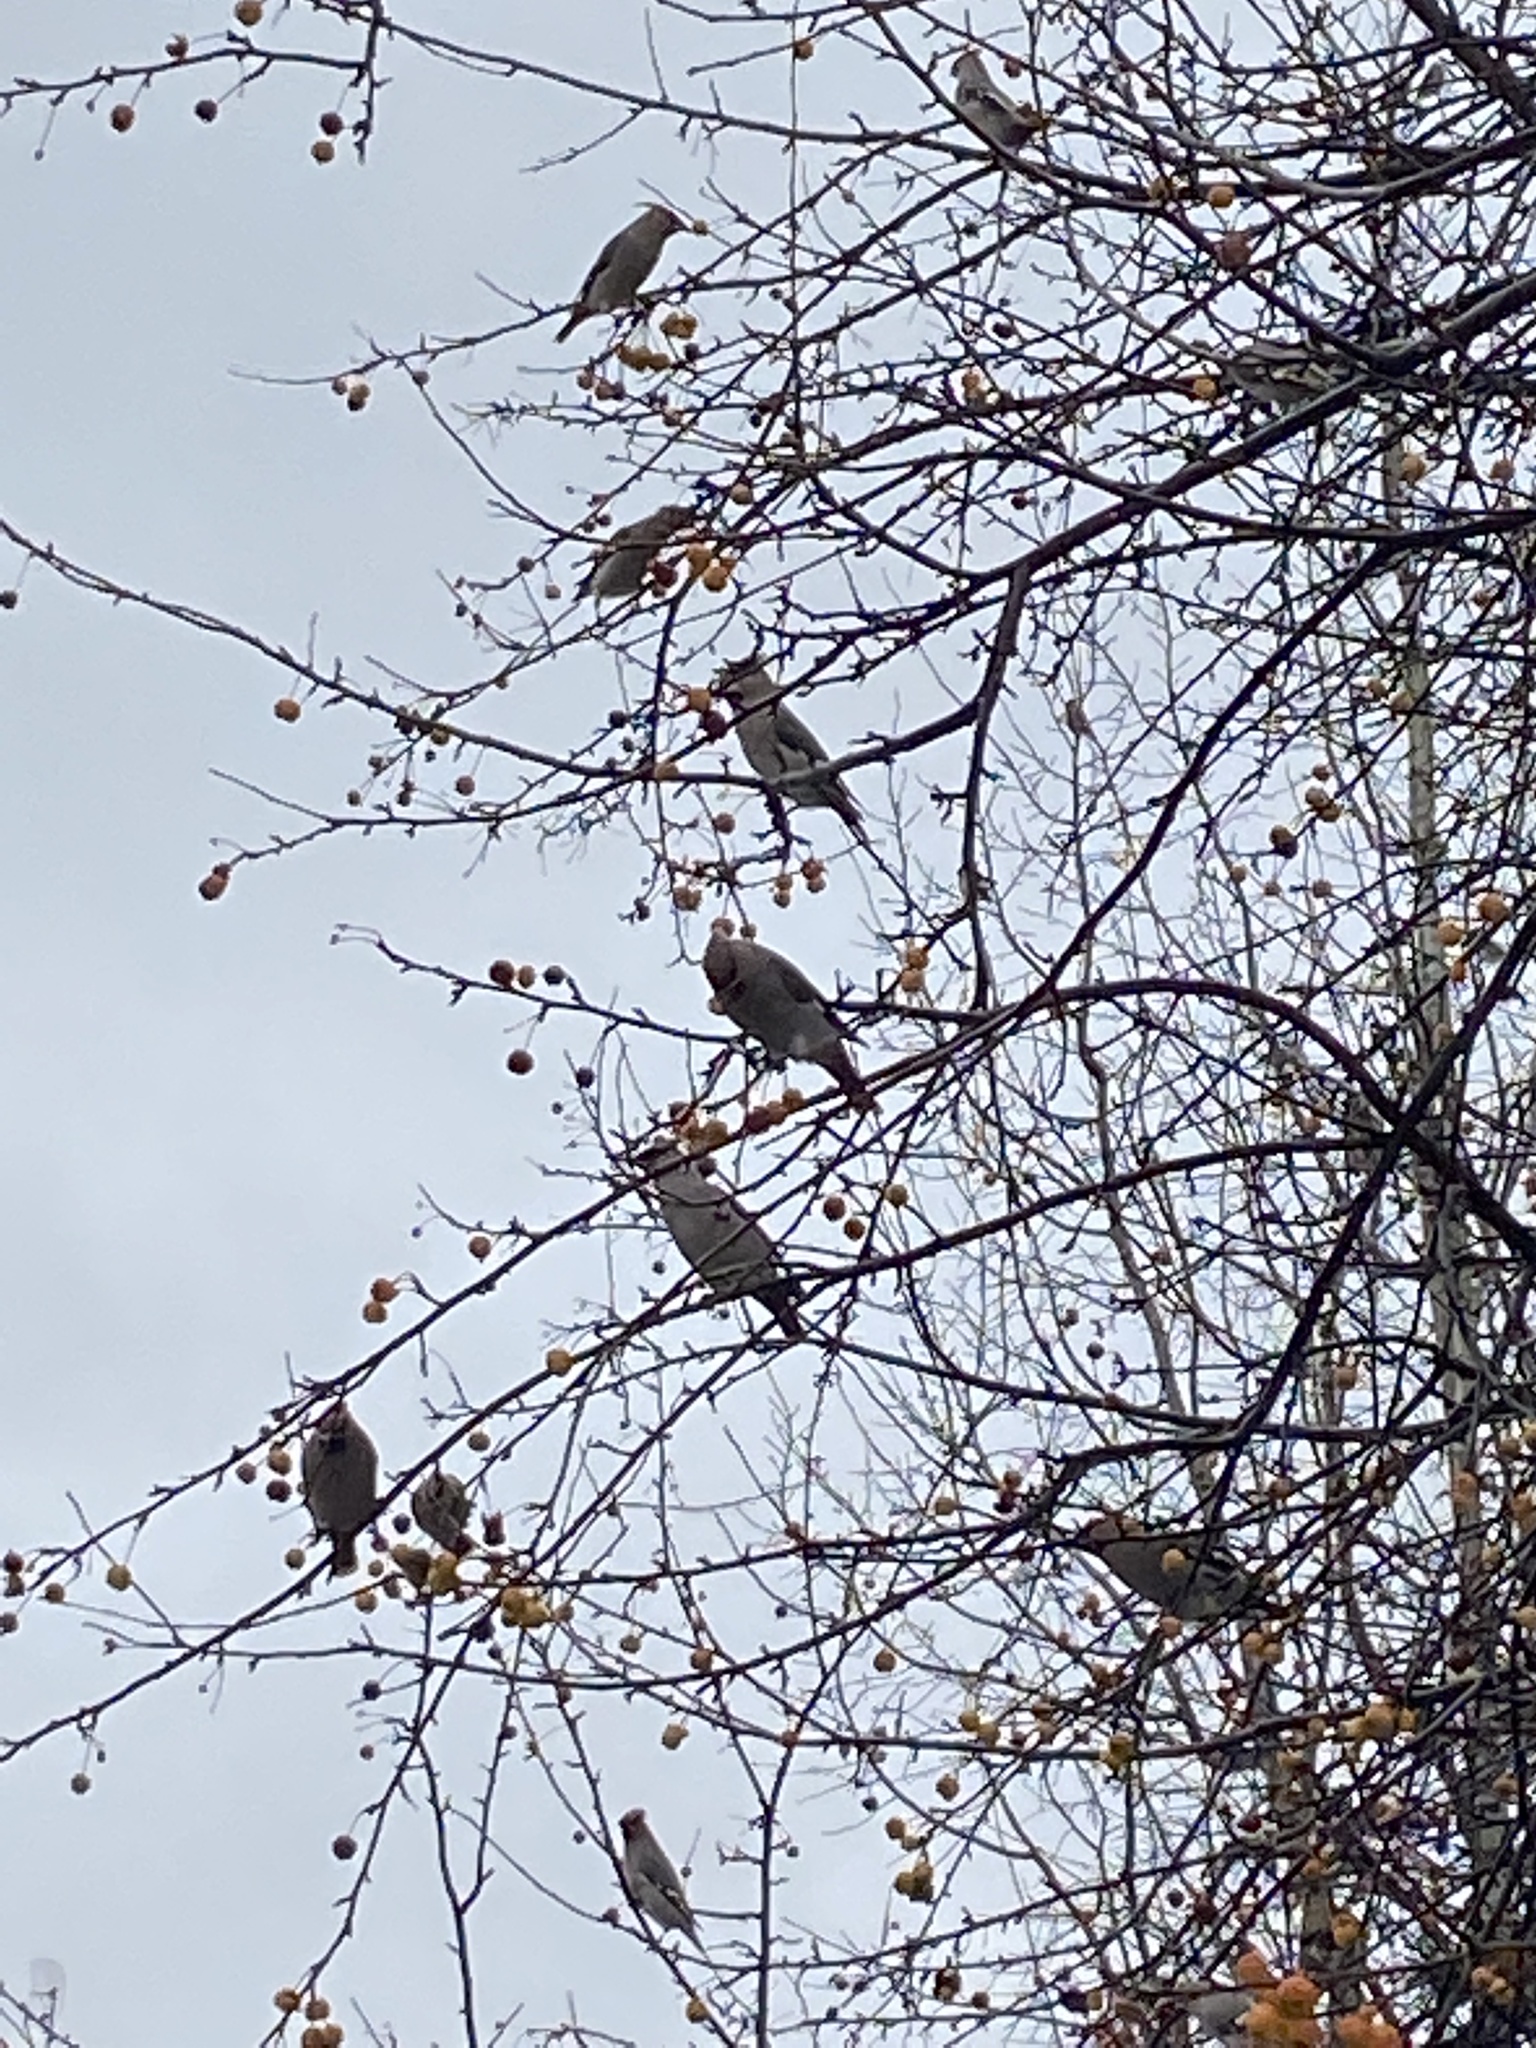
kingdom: Animalia
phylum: Chordata
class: Aves
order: Passeriformes
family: Bombycillidae
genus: Bombycilla
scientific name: Bombycilla garrulus
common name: Bohemian waxwing
